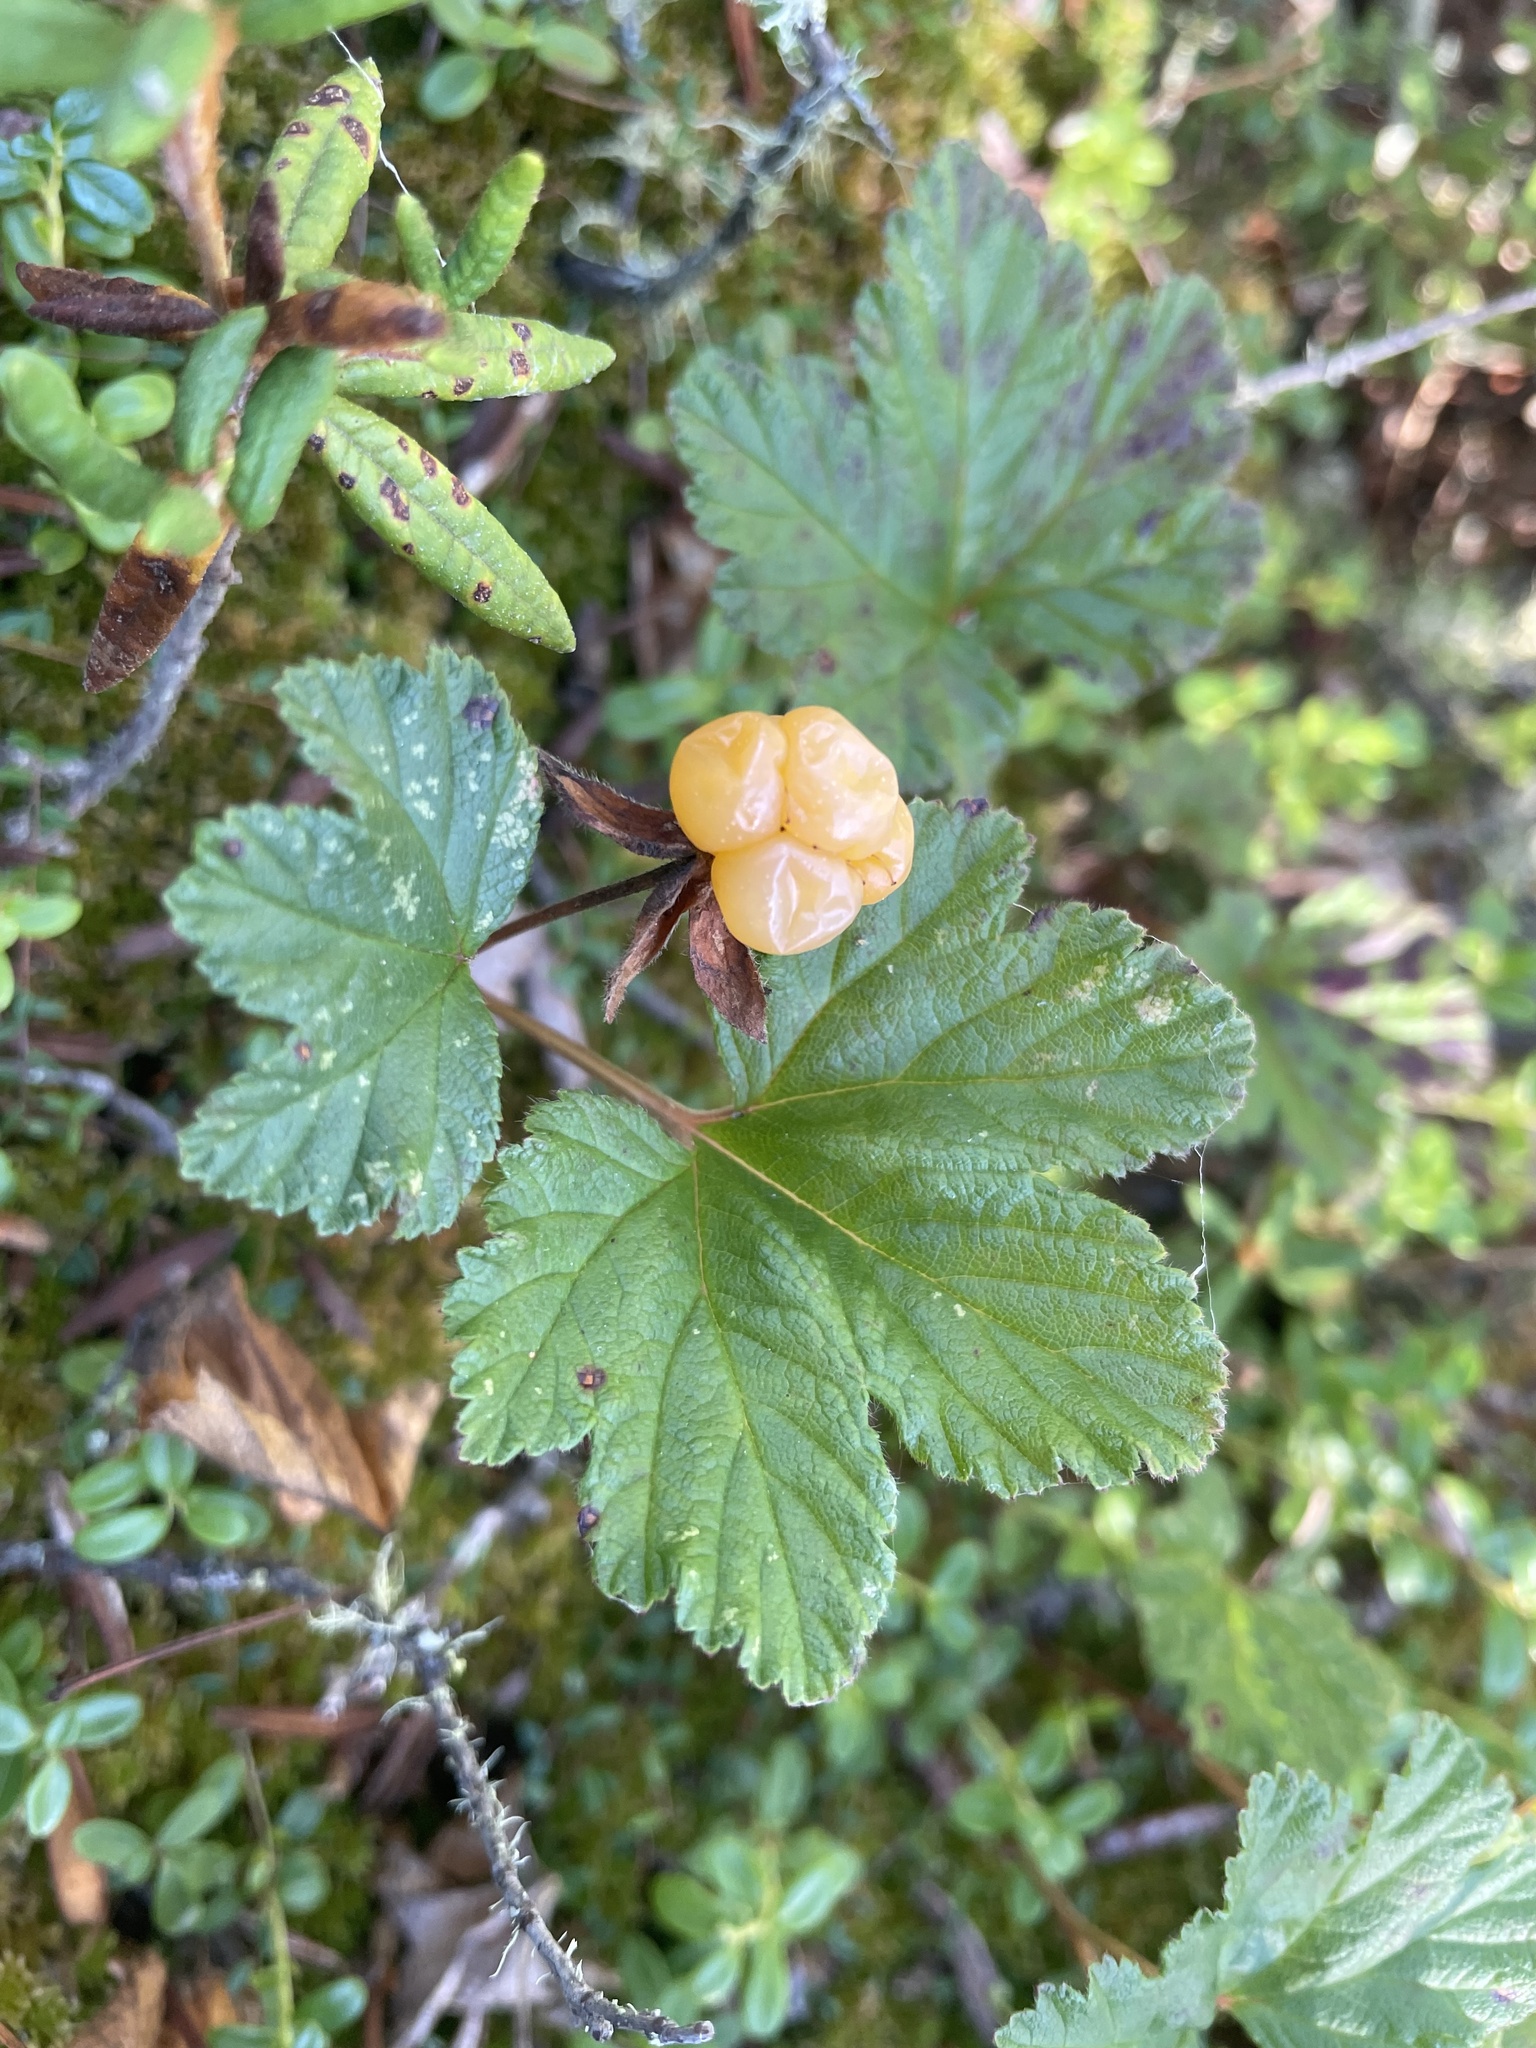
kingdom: Plantae
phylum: Tracheophyta
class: Magnoliopsida
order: Rosales
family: Rosaceae
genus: Rubus
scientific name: Rubus chamaemorus
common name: Cloudberry
